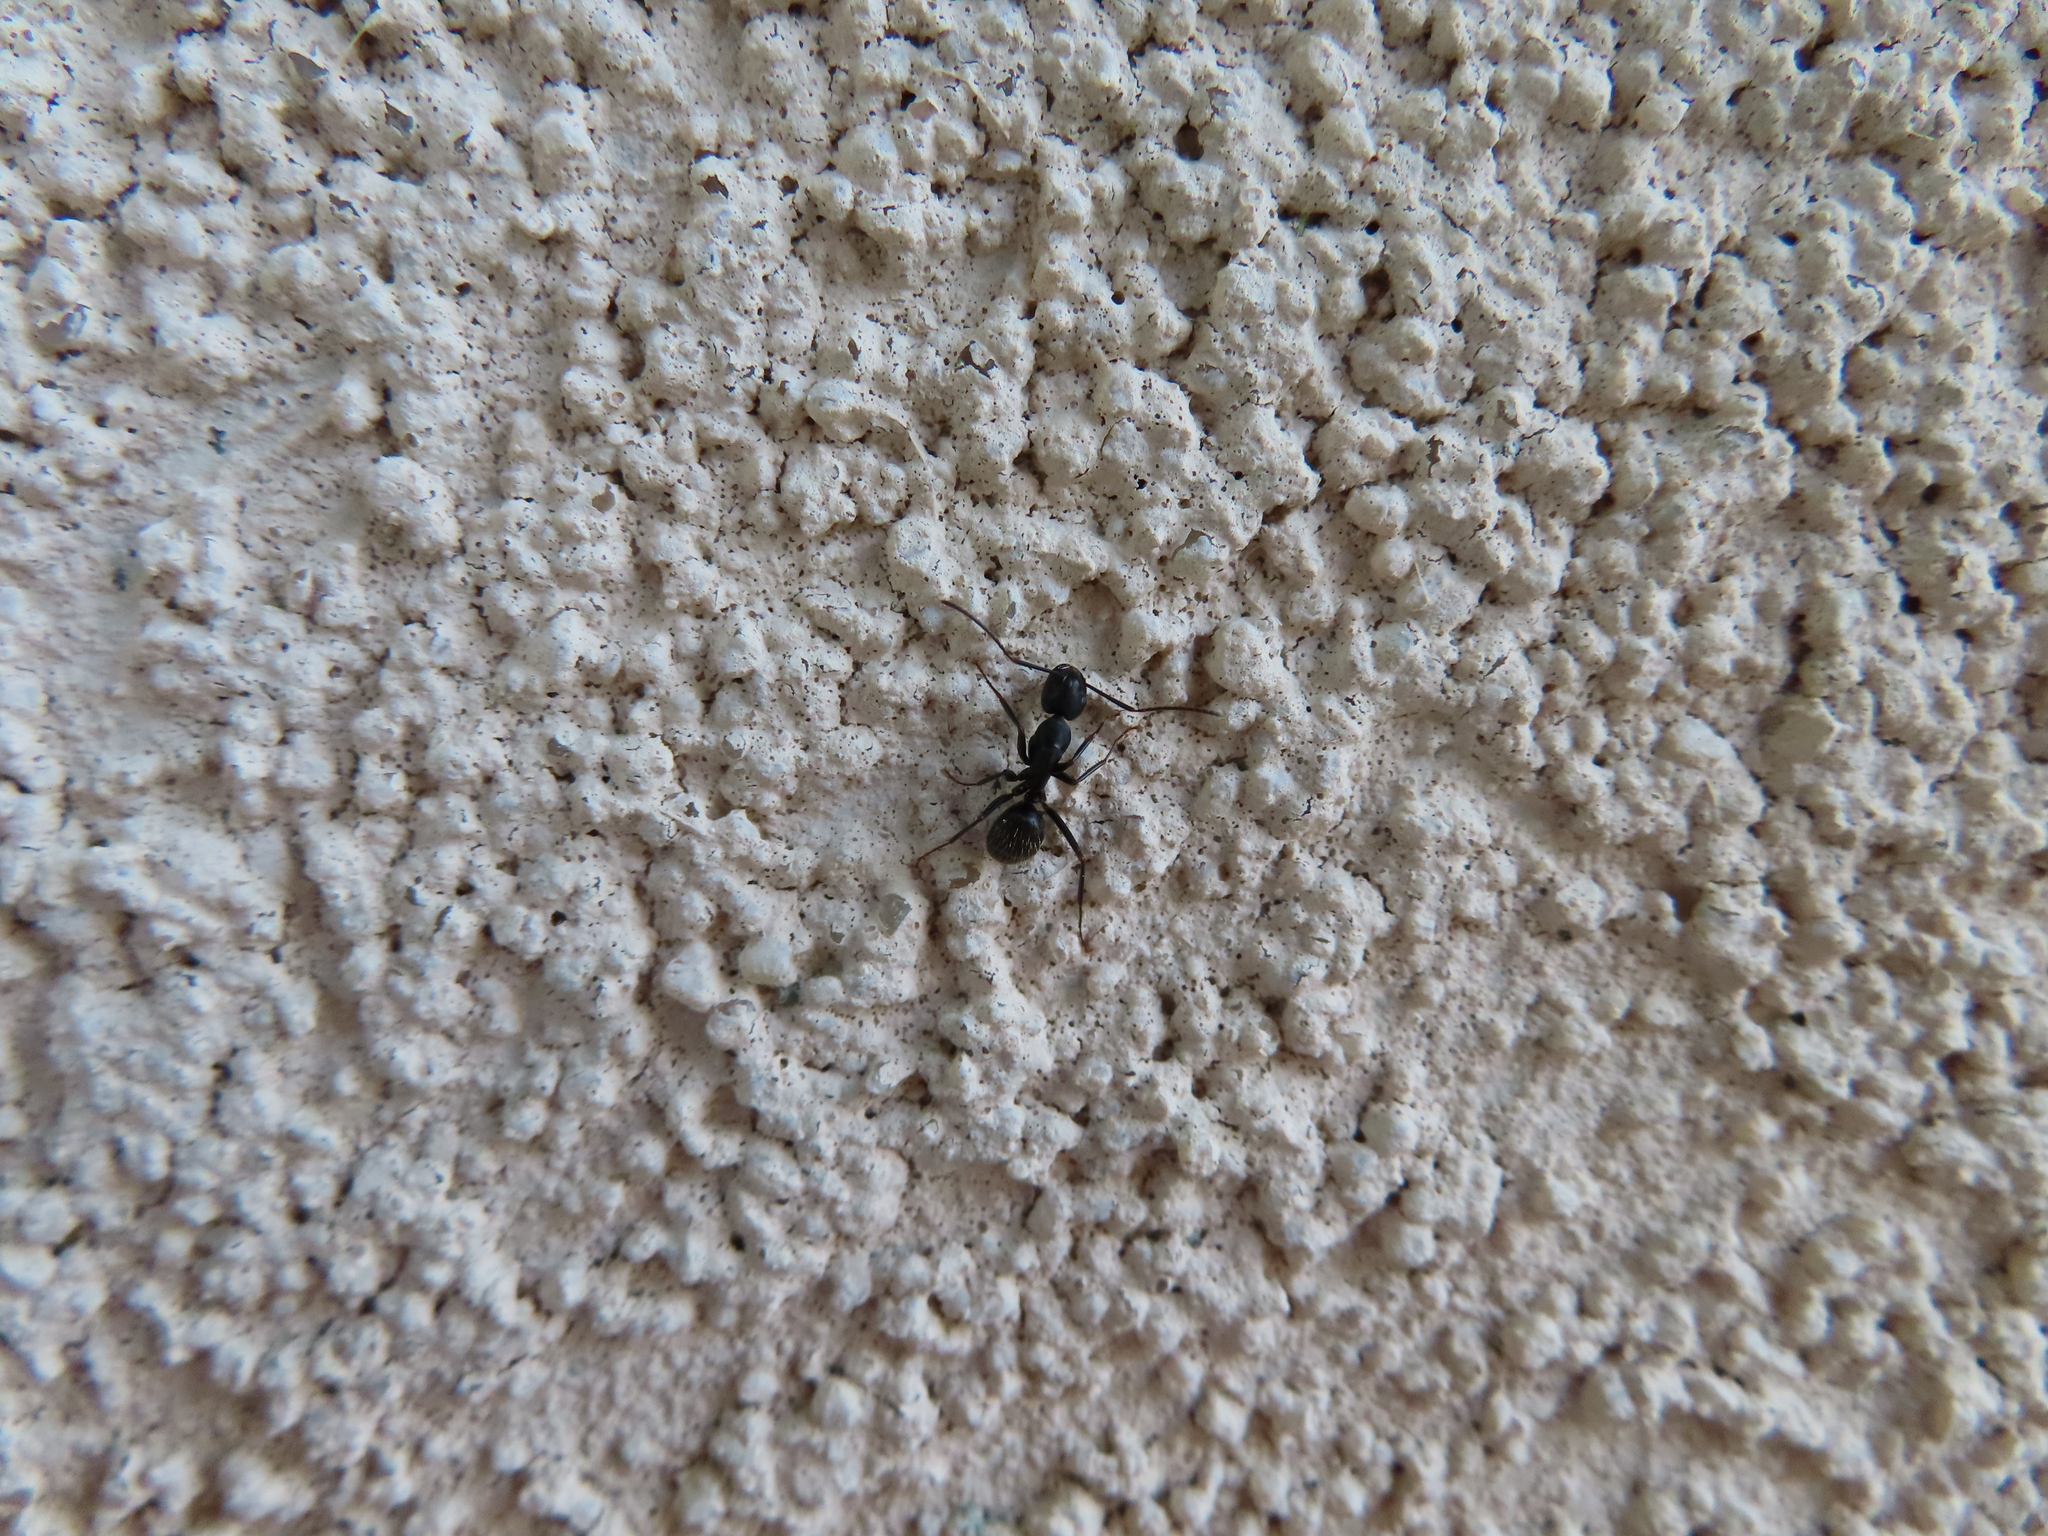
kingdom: Animalia
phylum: Arthropoda
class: Insecta
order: Hymenoptera
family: Formicidae
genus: Camponotus
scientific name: Camponotus pennsylvanicus
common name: Black carpenter ant
